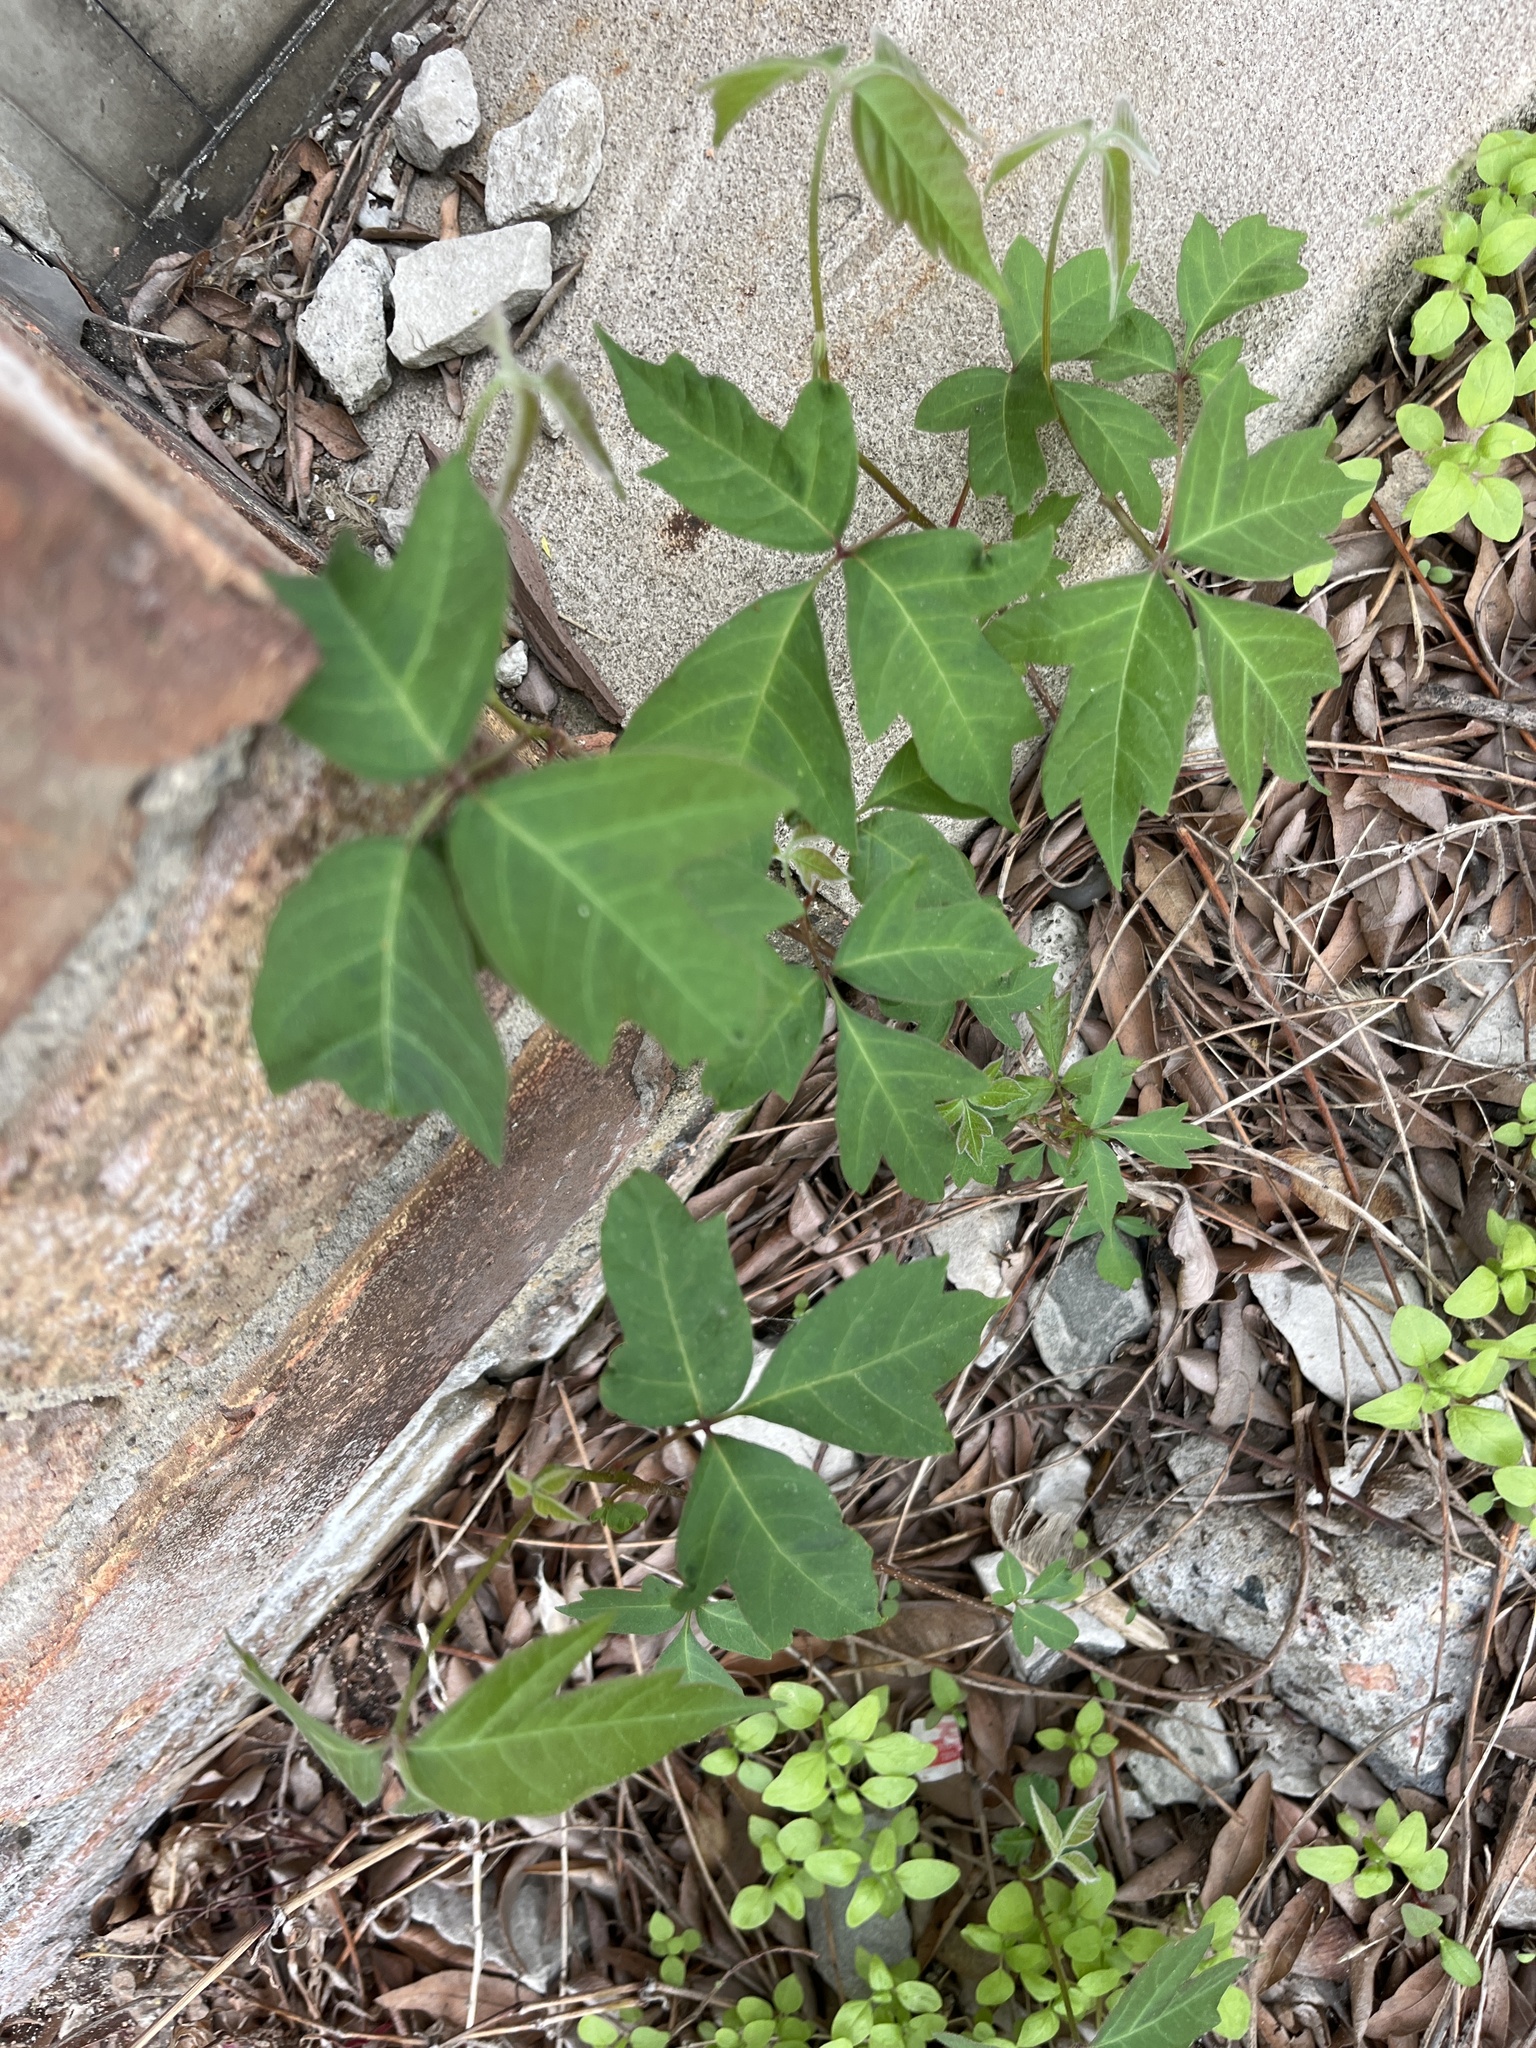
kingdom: Plantae
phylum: Tracheophyta
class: Magnoliopsida
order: Sapindales
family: Anacardiaceae
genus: Toxicodendron
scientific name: Toxicodendron radicans
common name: Poison ivy
